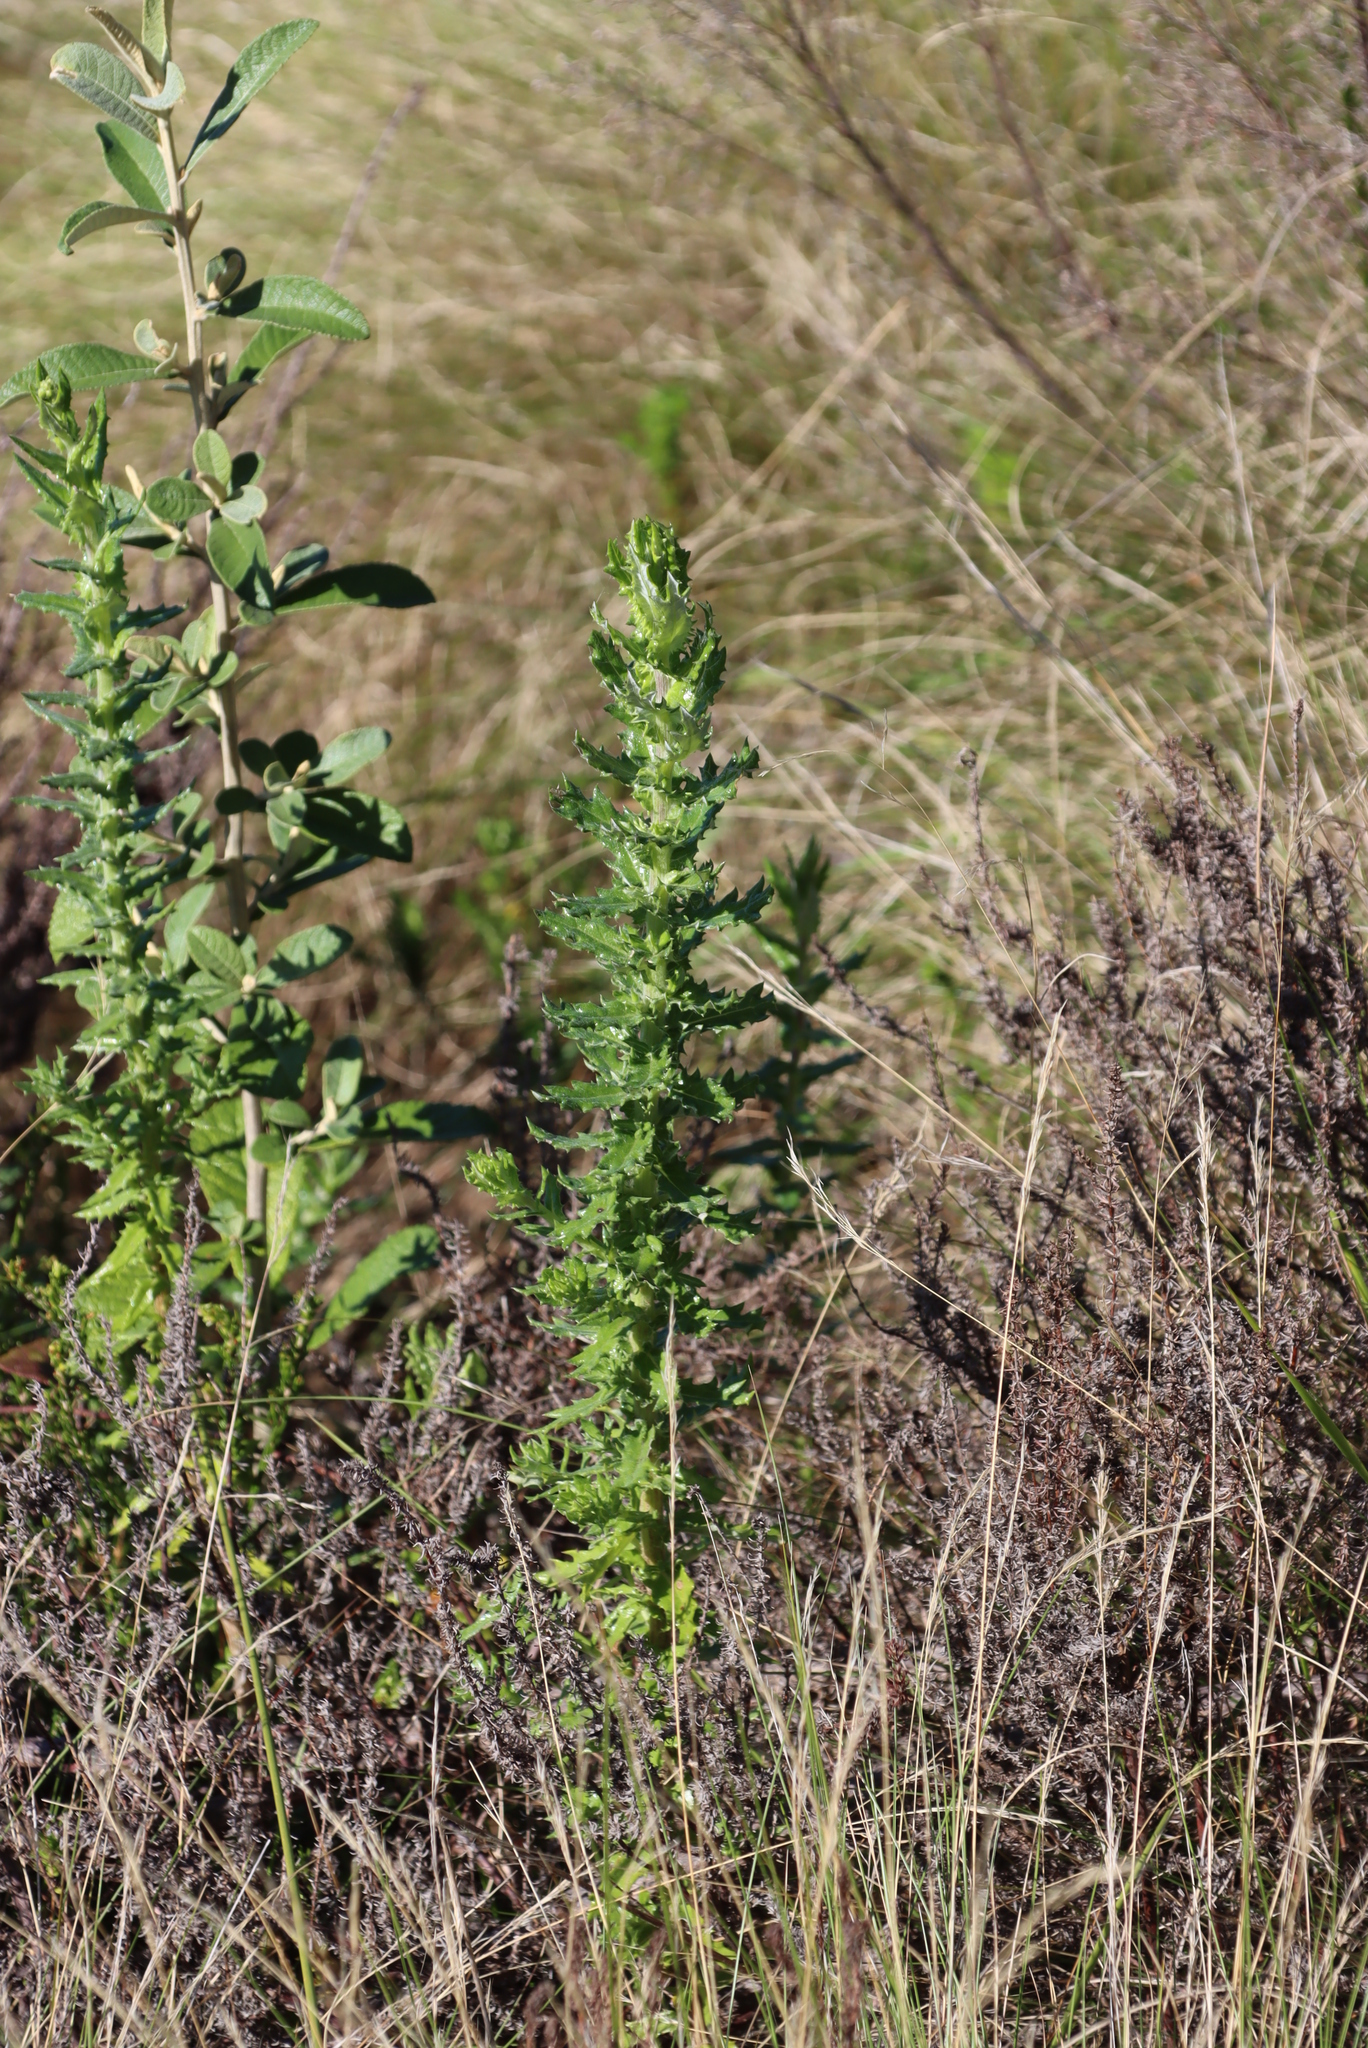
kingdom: Plantae
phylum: Tracheophyta
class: Magnoliopsida
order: Asterales
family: Asteraceae
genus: Senecio
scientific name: Senecio ilicifolius
